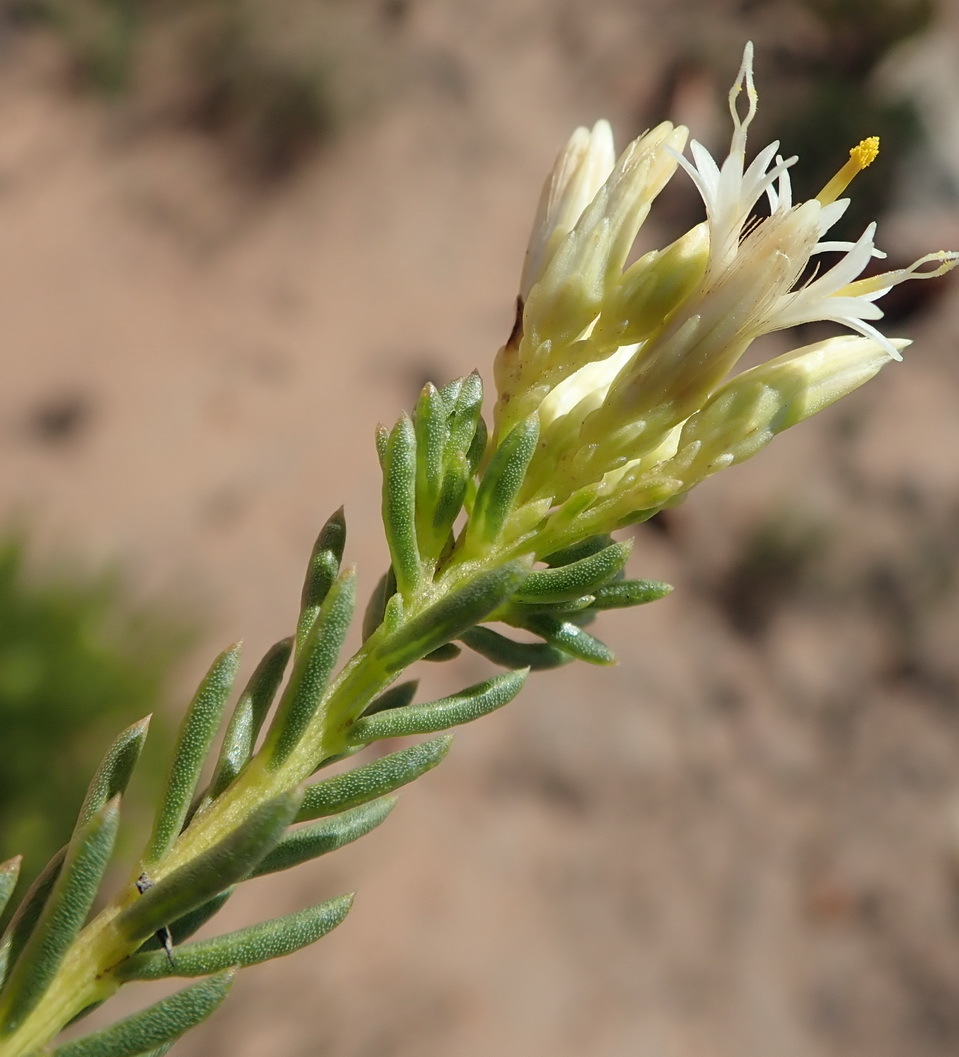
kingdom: Plantae
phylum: Tracheophyta
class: Magnoliopsida
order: Asterales
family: Asteraceae
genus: Pteronia
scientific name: Pteronia teretifolia
